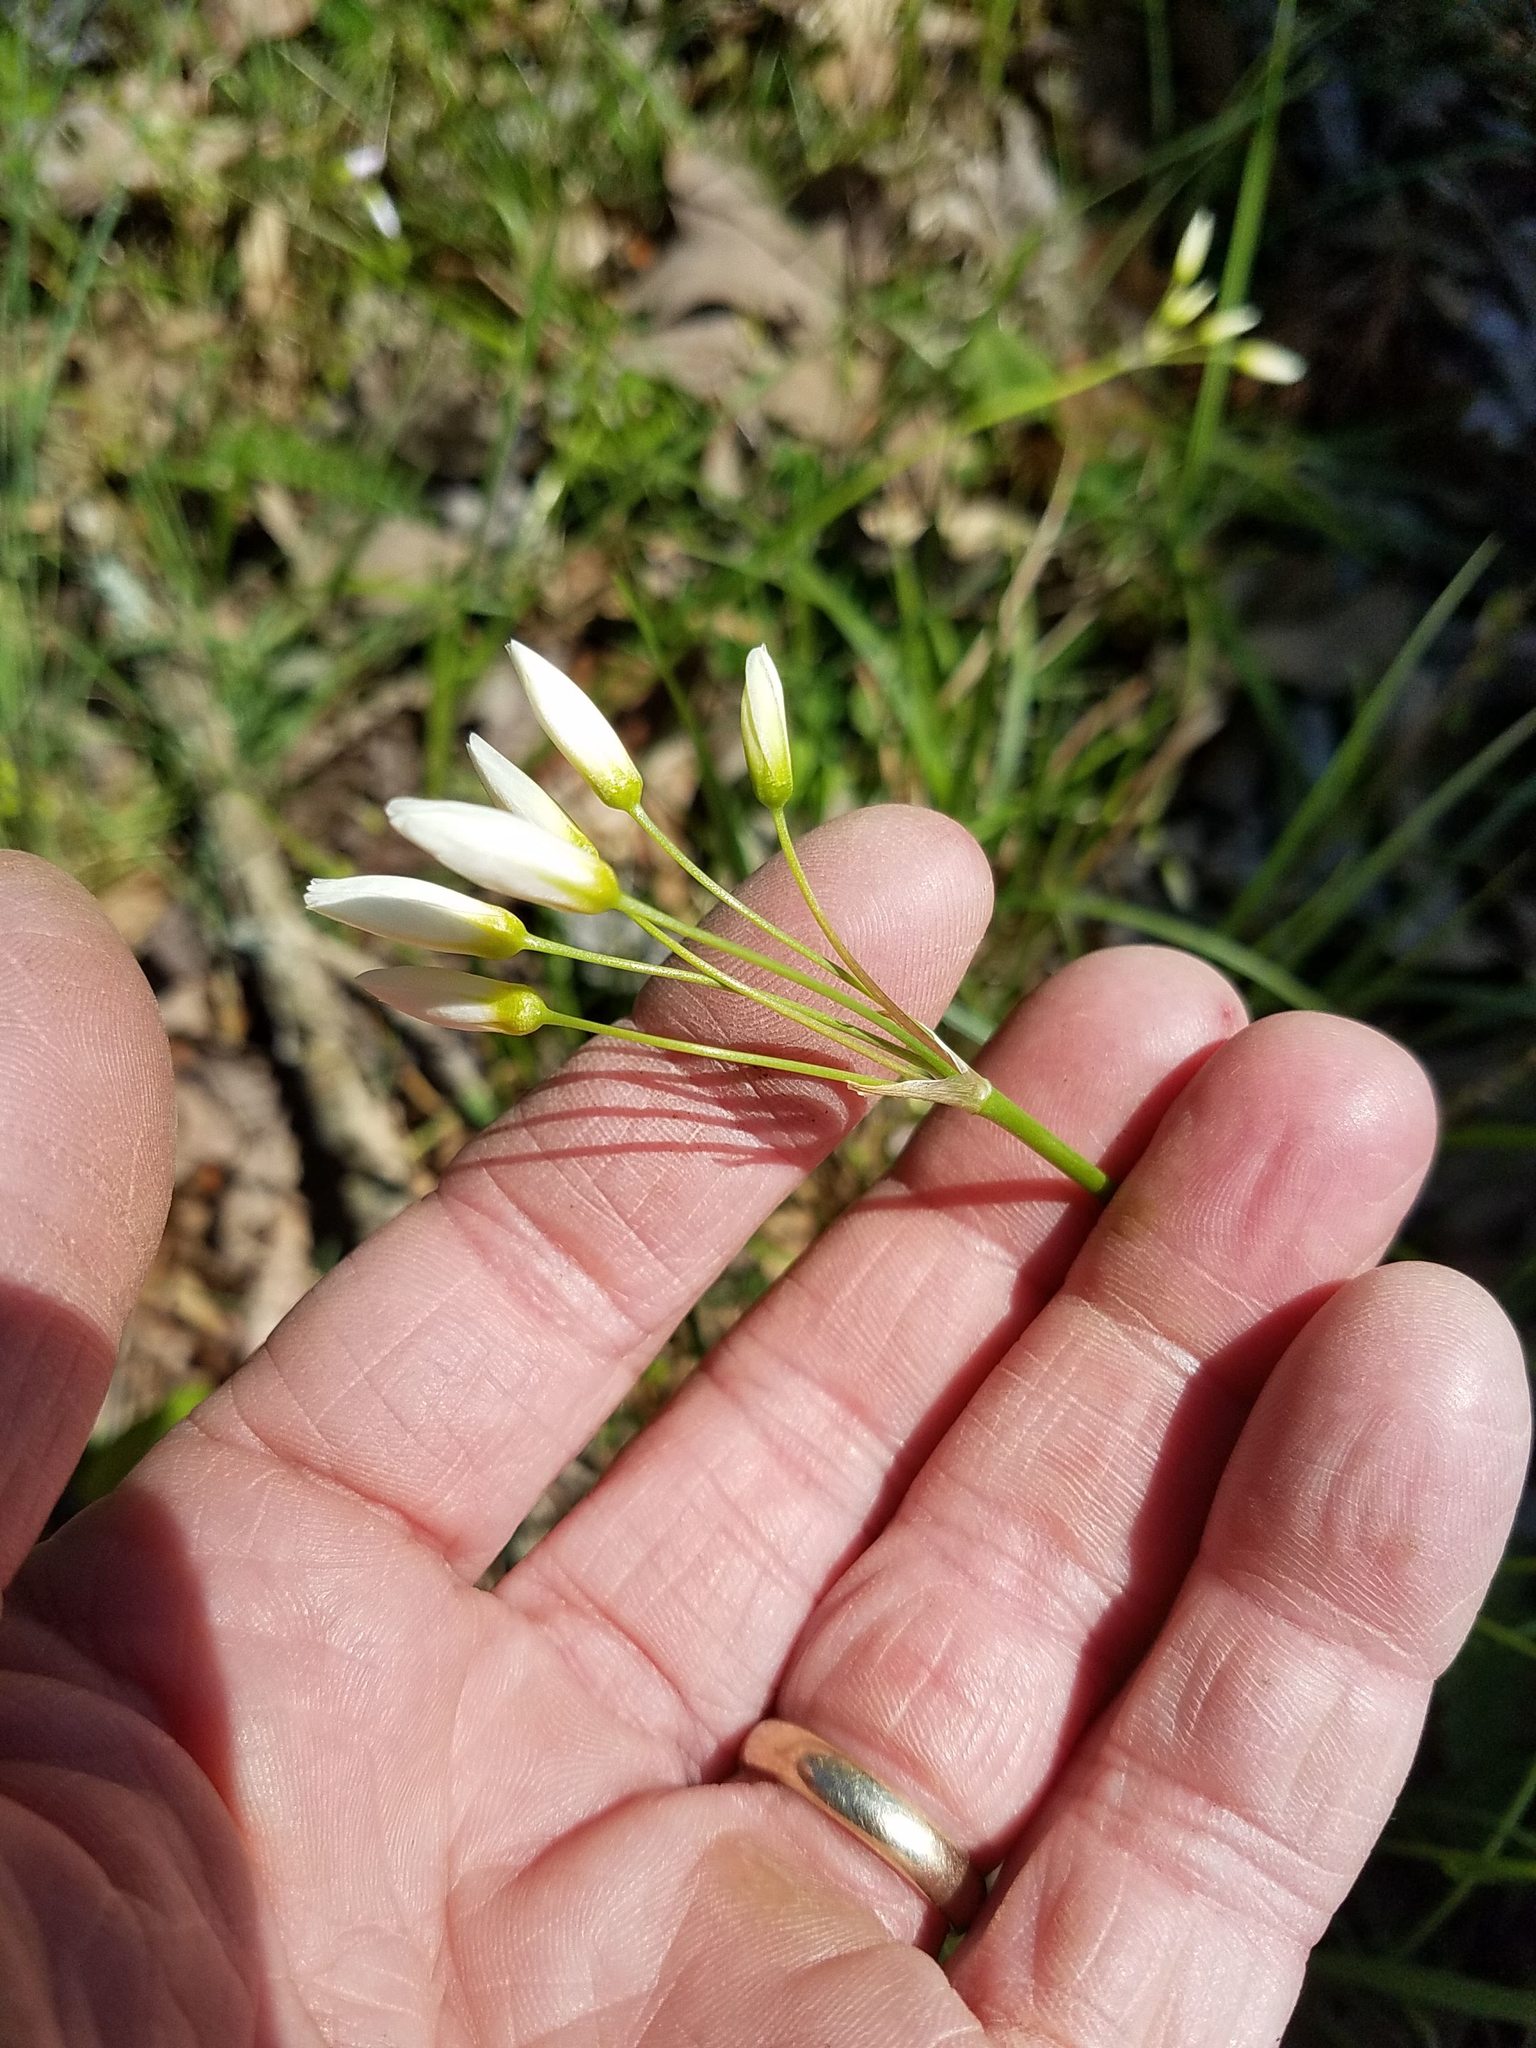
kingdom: Plantae
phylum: Tracheophyta
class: Liliopsida
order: Asparagales
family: Amaryllidaceae
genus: Nothoscordum
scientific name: Nothoscordum bivalve
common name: Crow-poison
